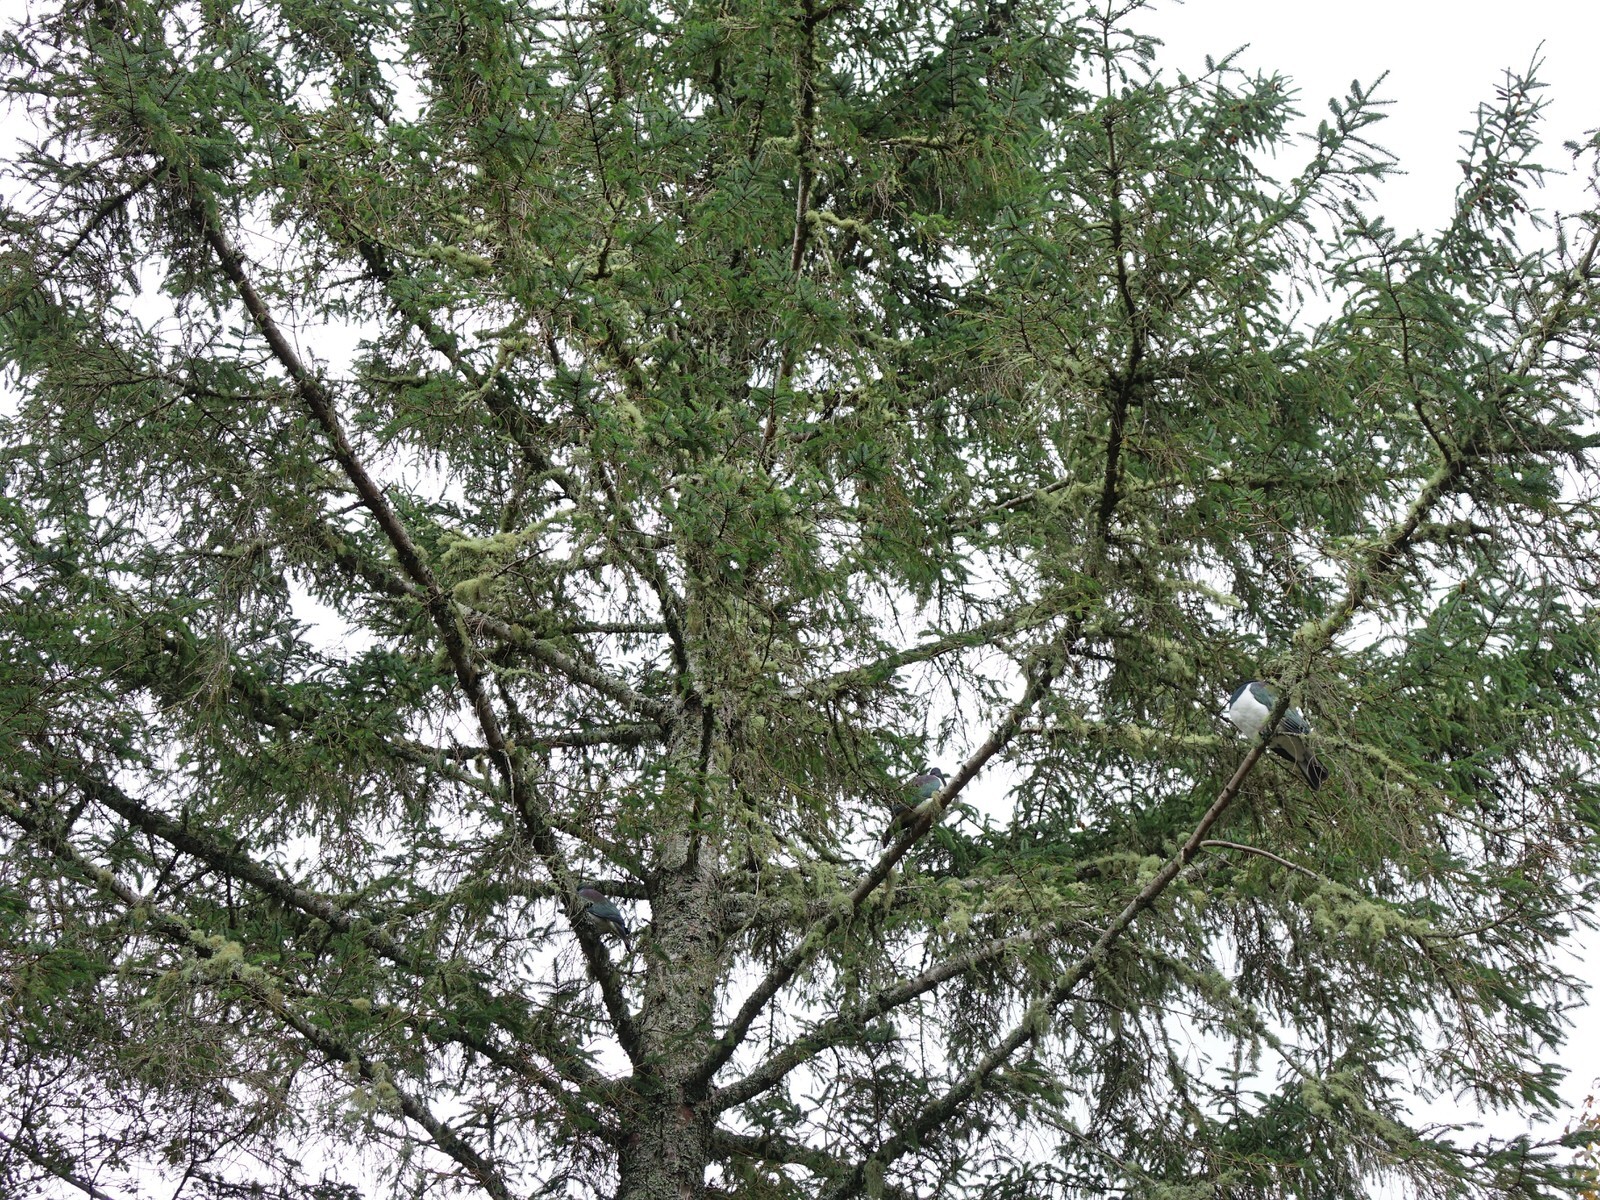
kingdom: Animalia
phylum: Chordata
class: Aves
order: Columbiformes
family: Columbidae
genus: Hemiphaga
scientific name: Hemiphaga novaeseelandiae
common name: New zealand pigeon
